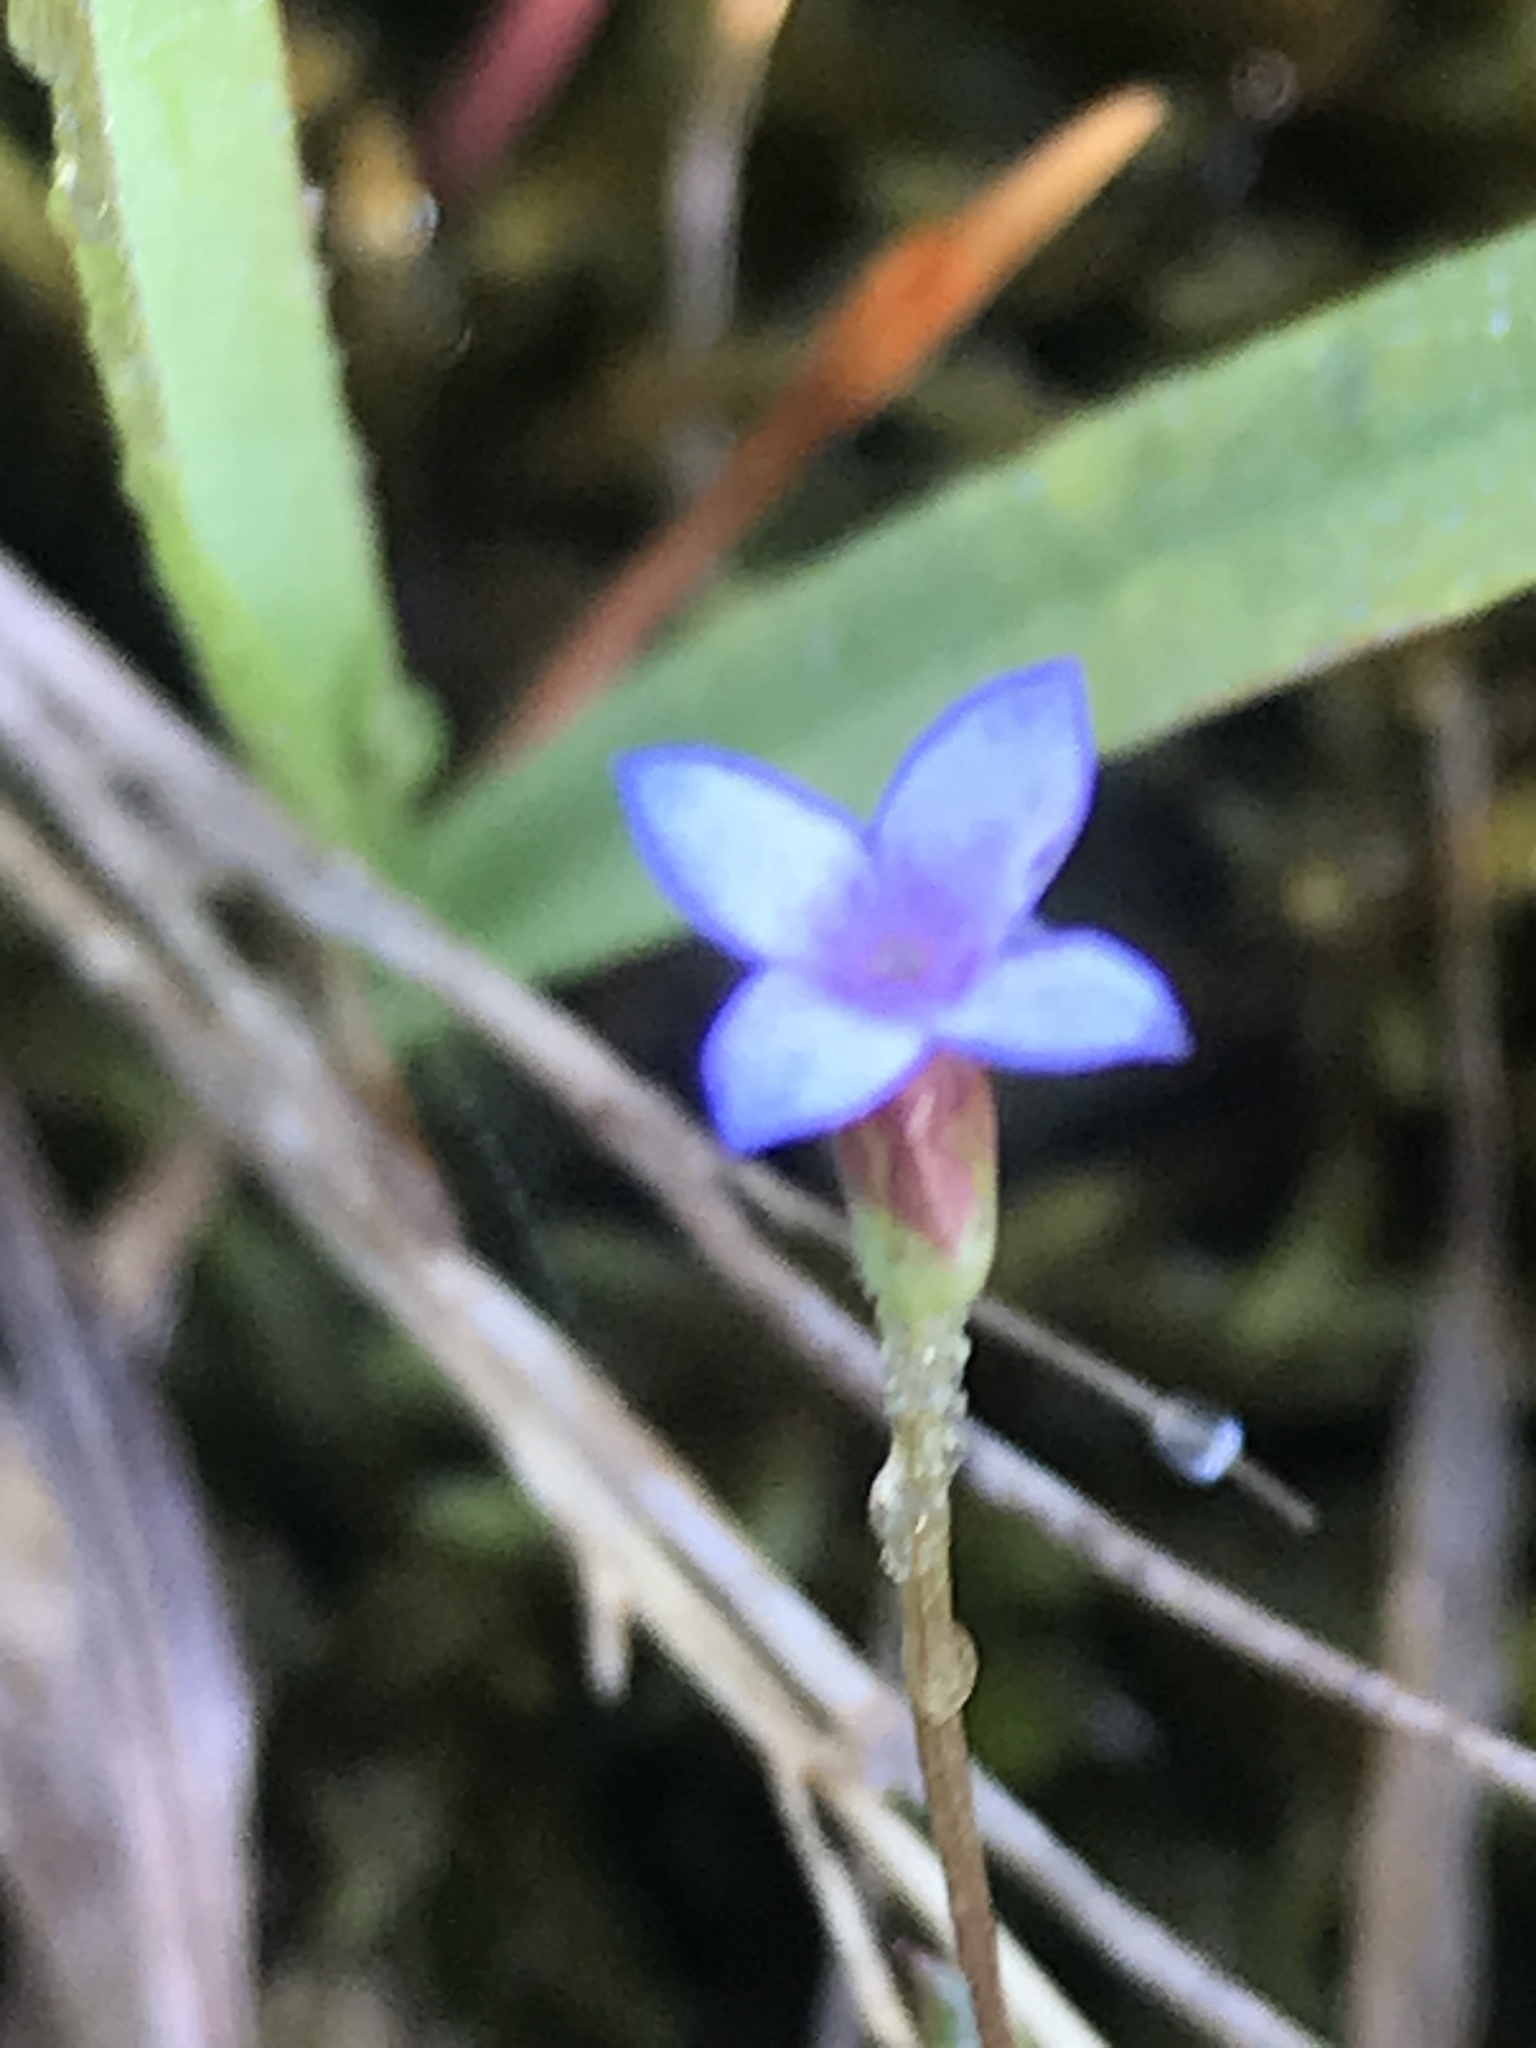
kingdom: Plantae
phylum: Tracheophyta
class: Magnoliopsida
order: Gentianales
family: Rubiaceae
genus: Houstonia
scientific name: Houstonia pusilla
